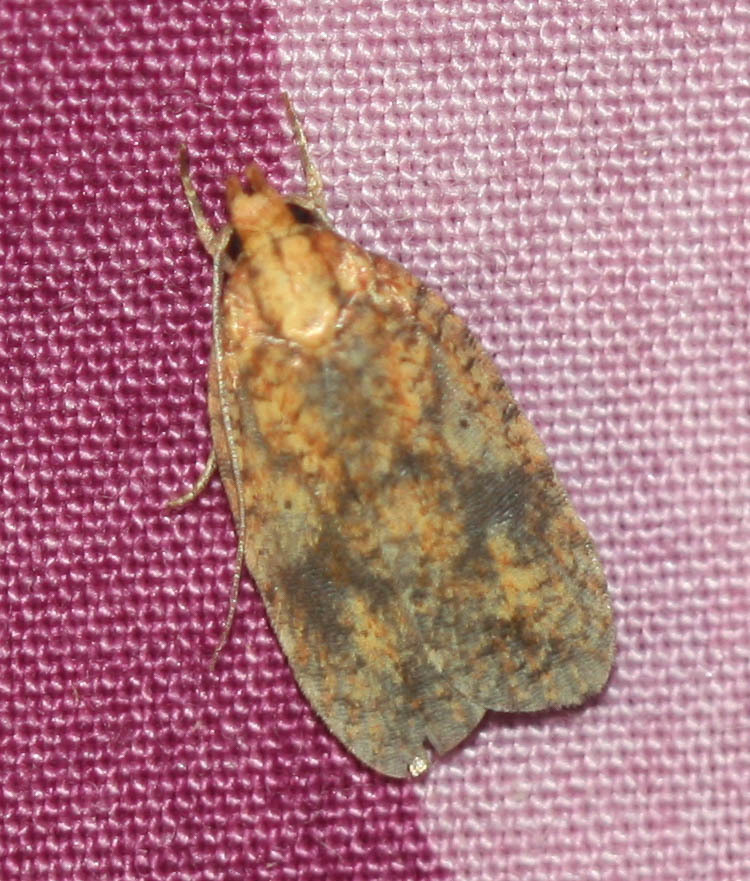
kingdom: Animalia
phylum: Arthropoda
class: Insecta
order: Lepidoptera
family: Depressariidae
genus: Agonopterix
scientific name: Agonopterix robiniella
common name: Four-dotted agonopterix moth
